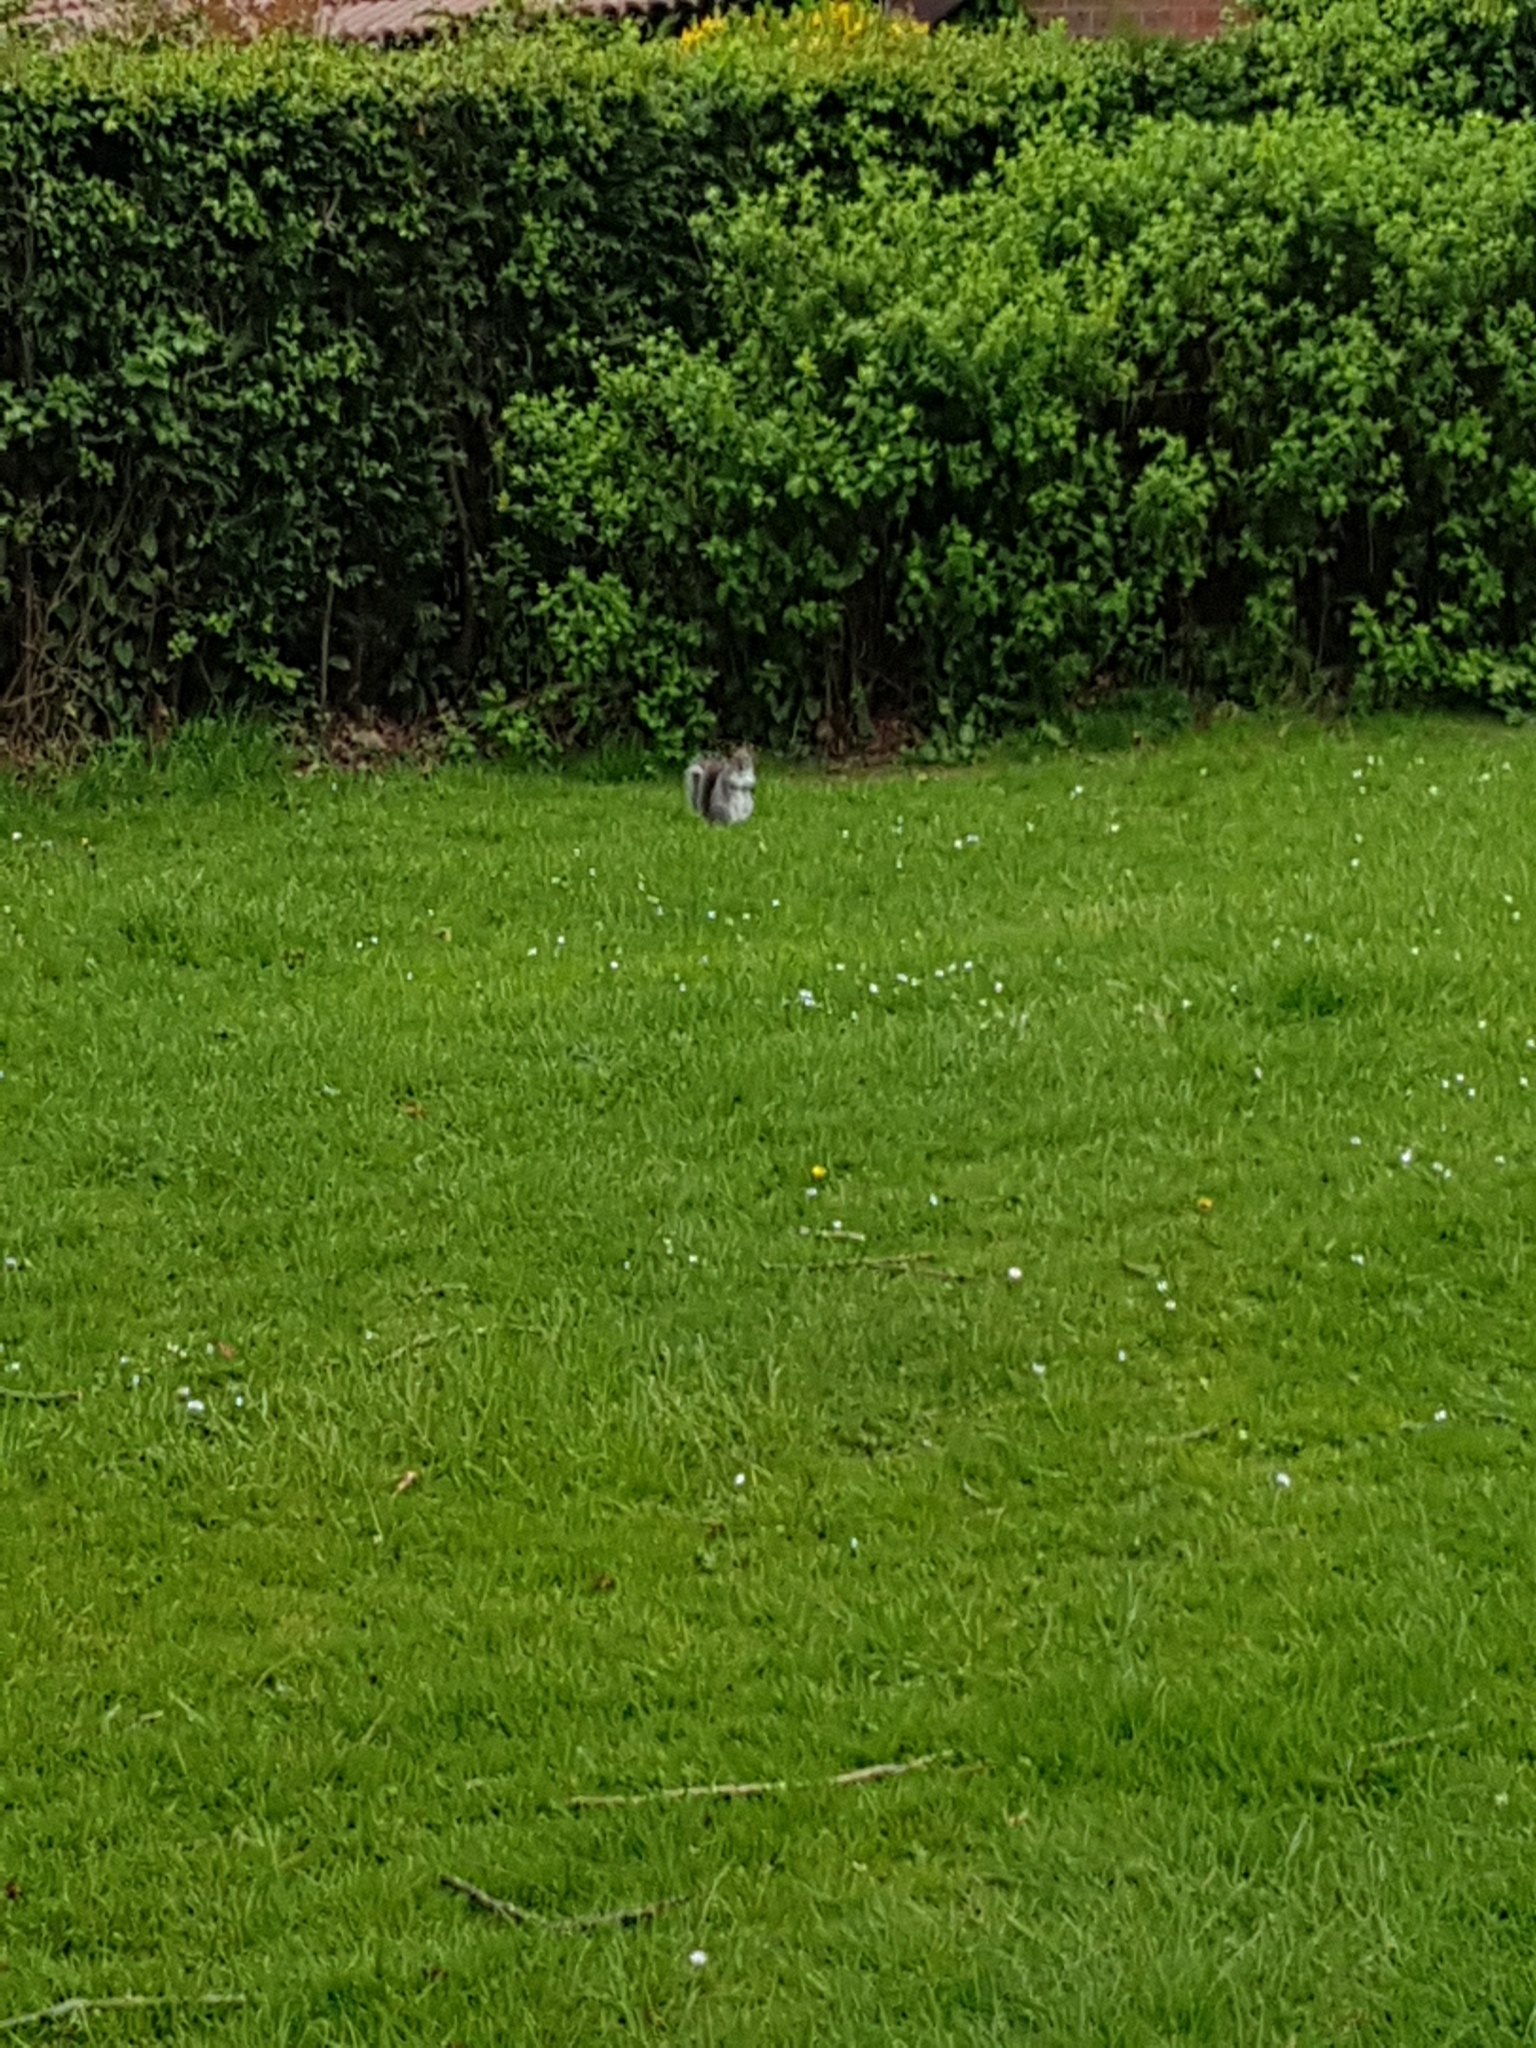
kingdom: Animalia
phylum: Chordata
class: Mammalia
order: Rodentia
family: Sciuridae
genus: Sciurus
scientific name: Sciurus carolinensis
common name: Eastern gray squirrel
